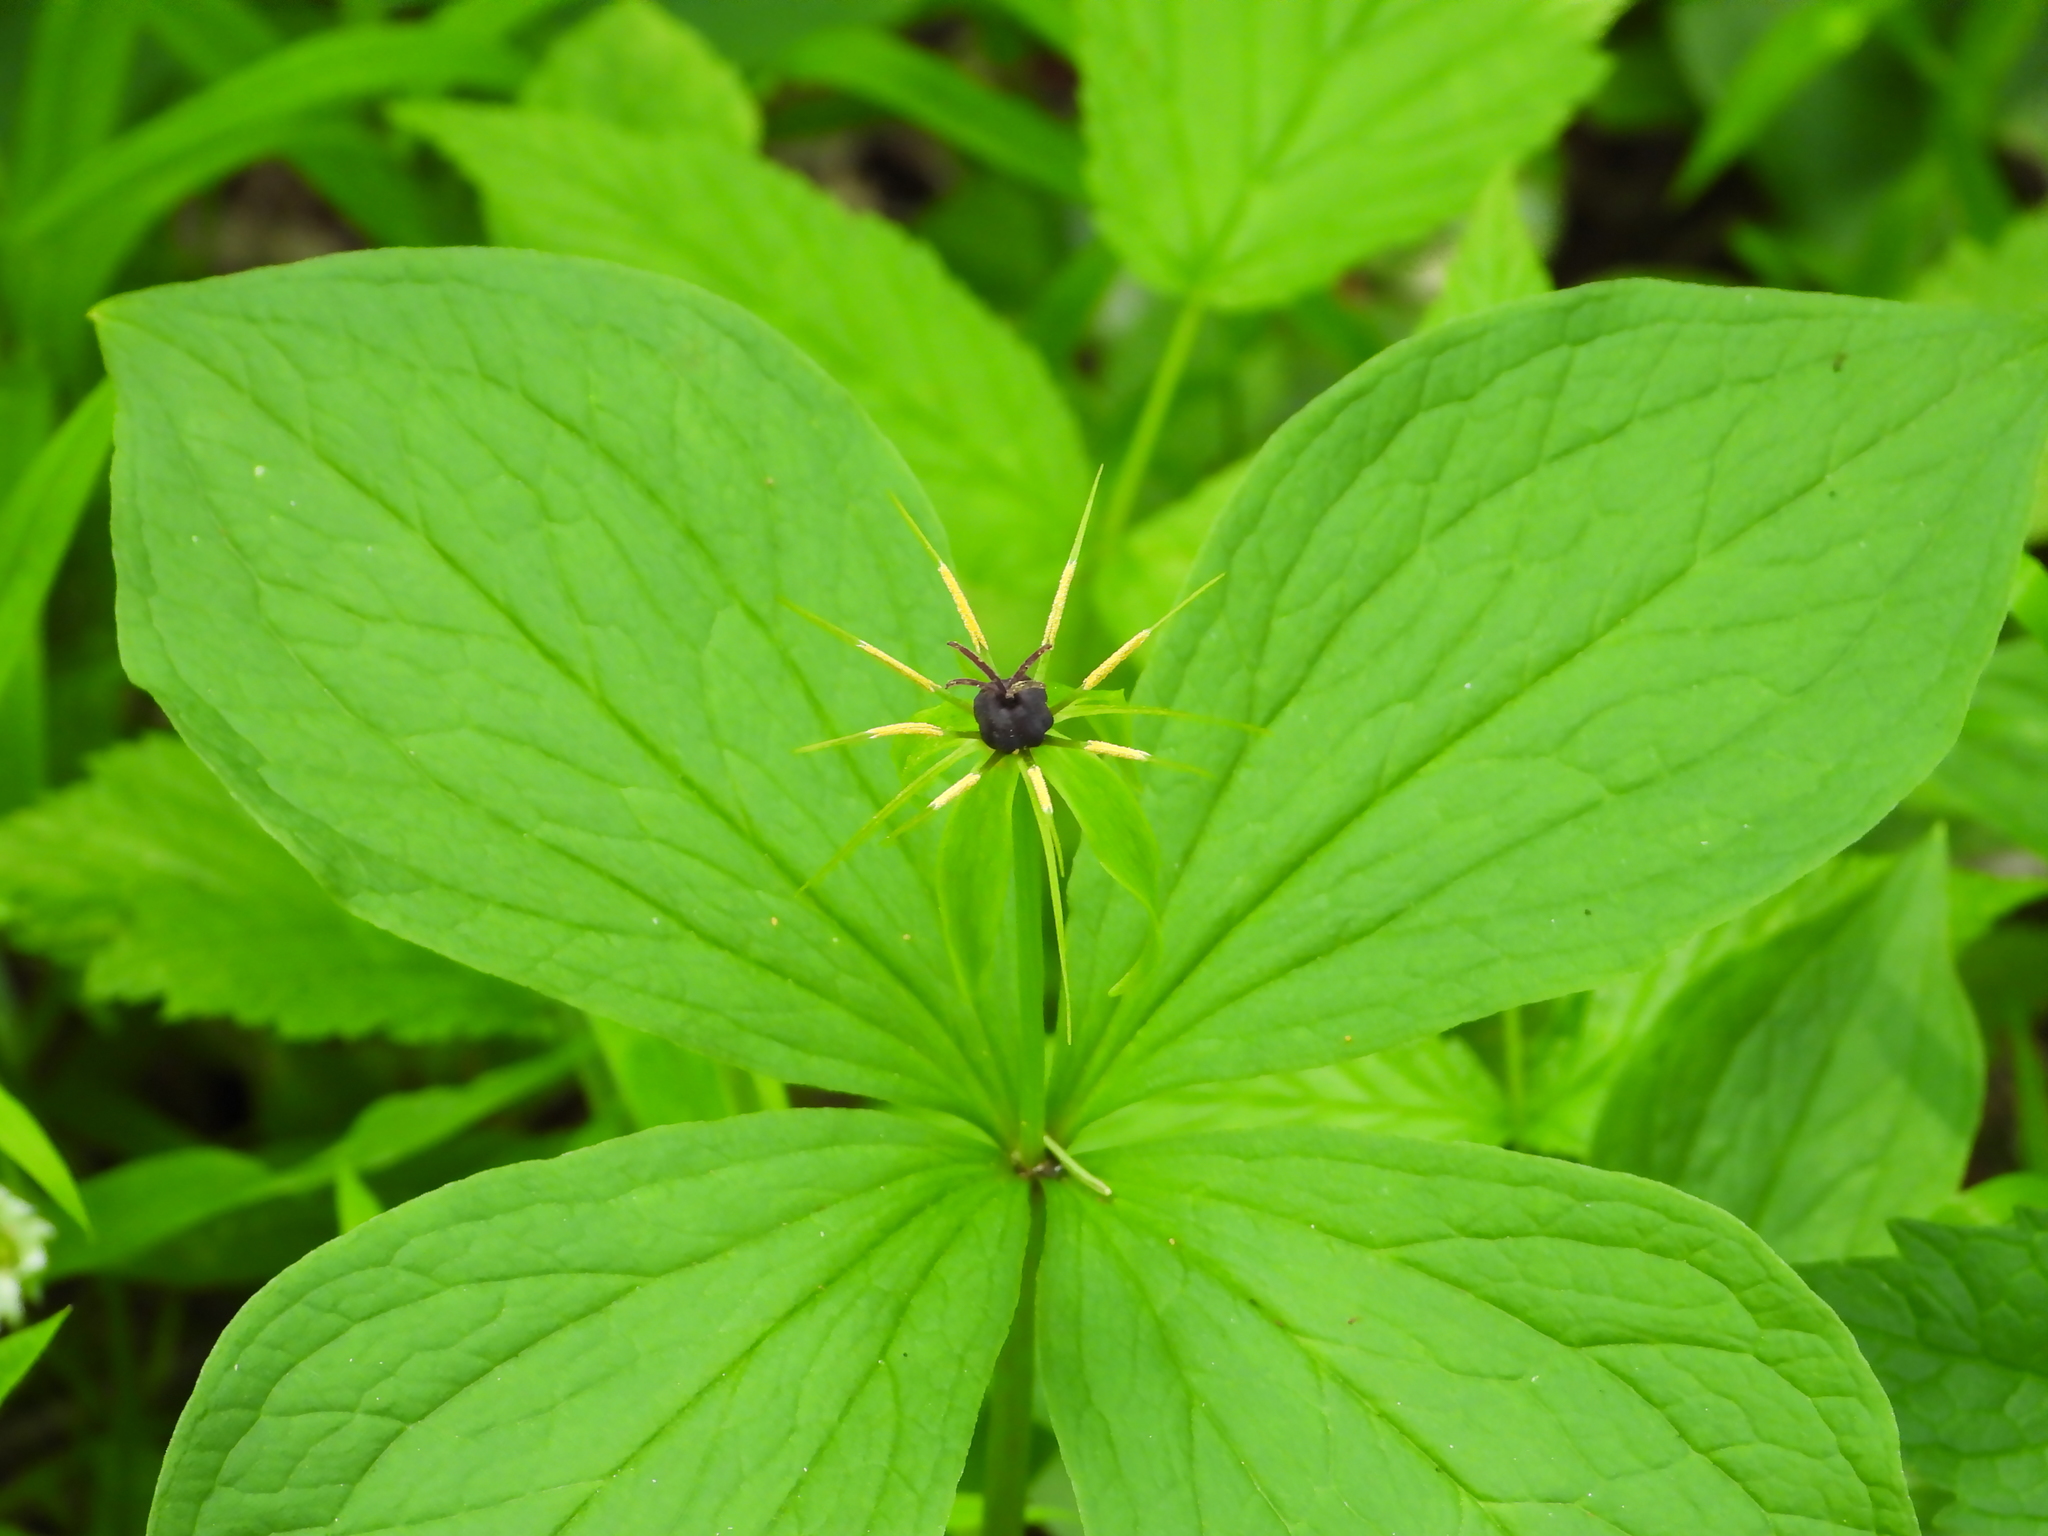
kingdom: Plantae
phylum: Tracheophyta
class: Liliopsida
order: Liliales
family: Melanthiaceae
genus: Paris
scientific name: Paris quadrifolia
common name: Herb-paris
